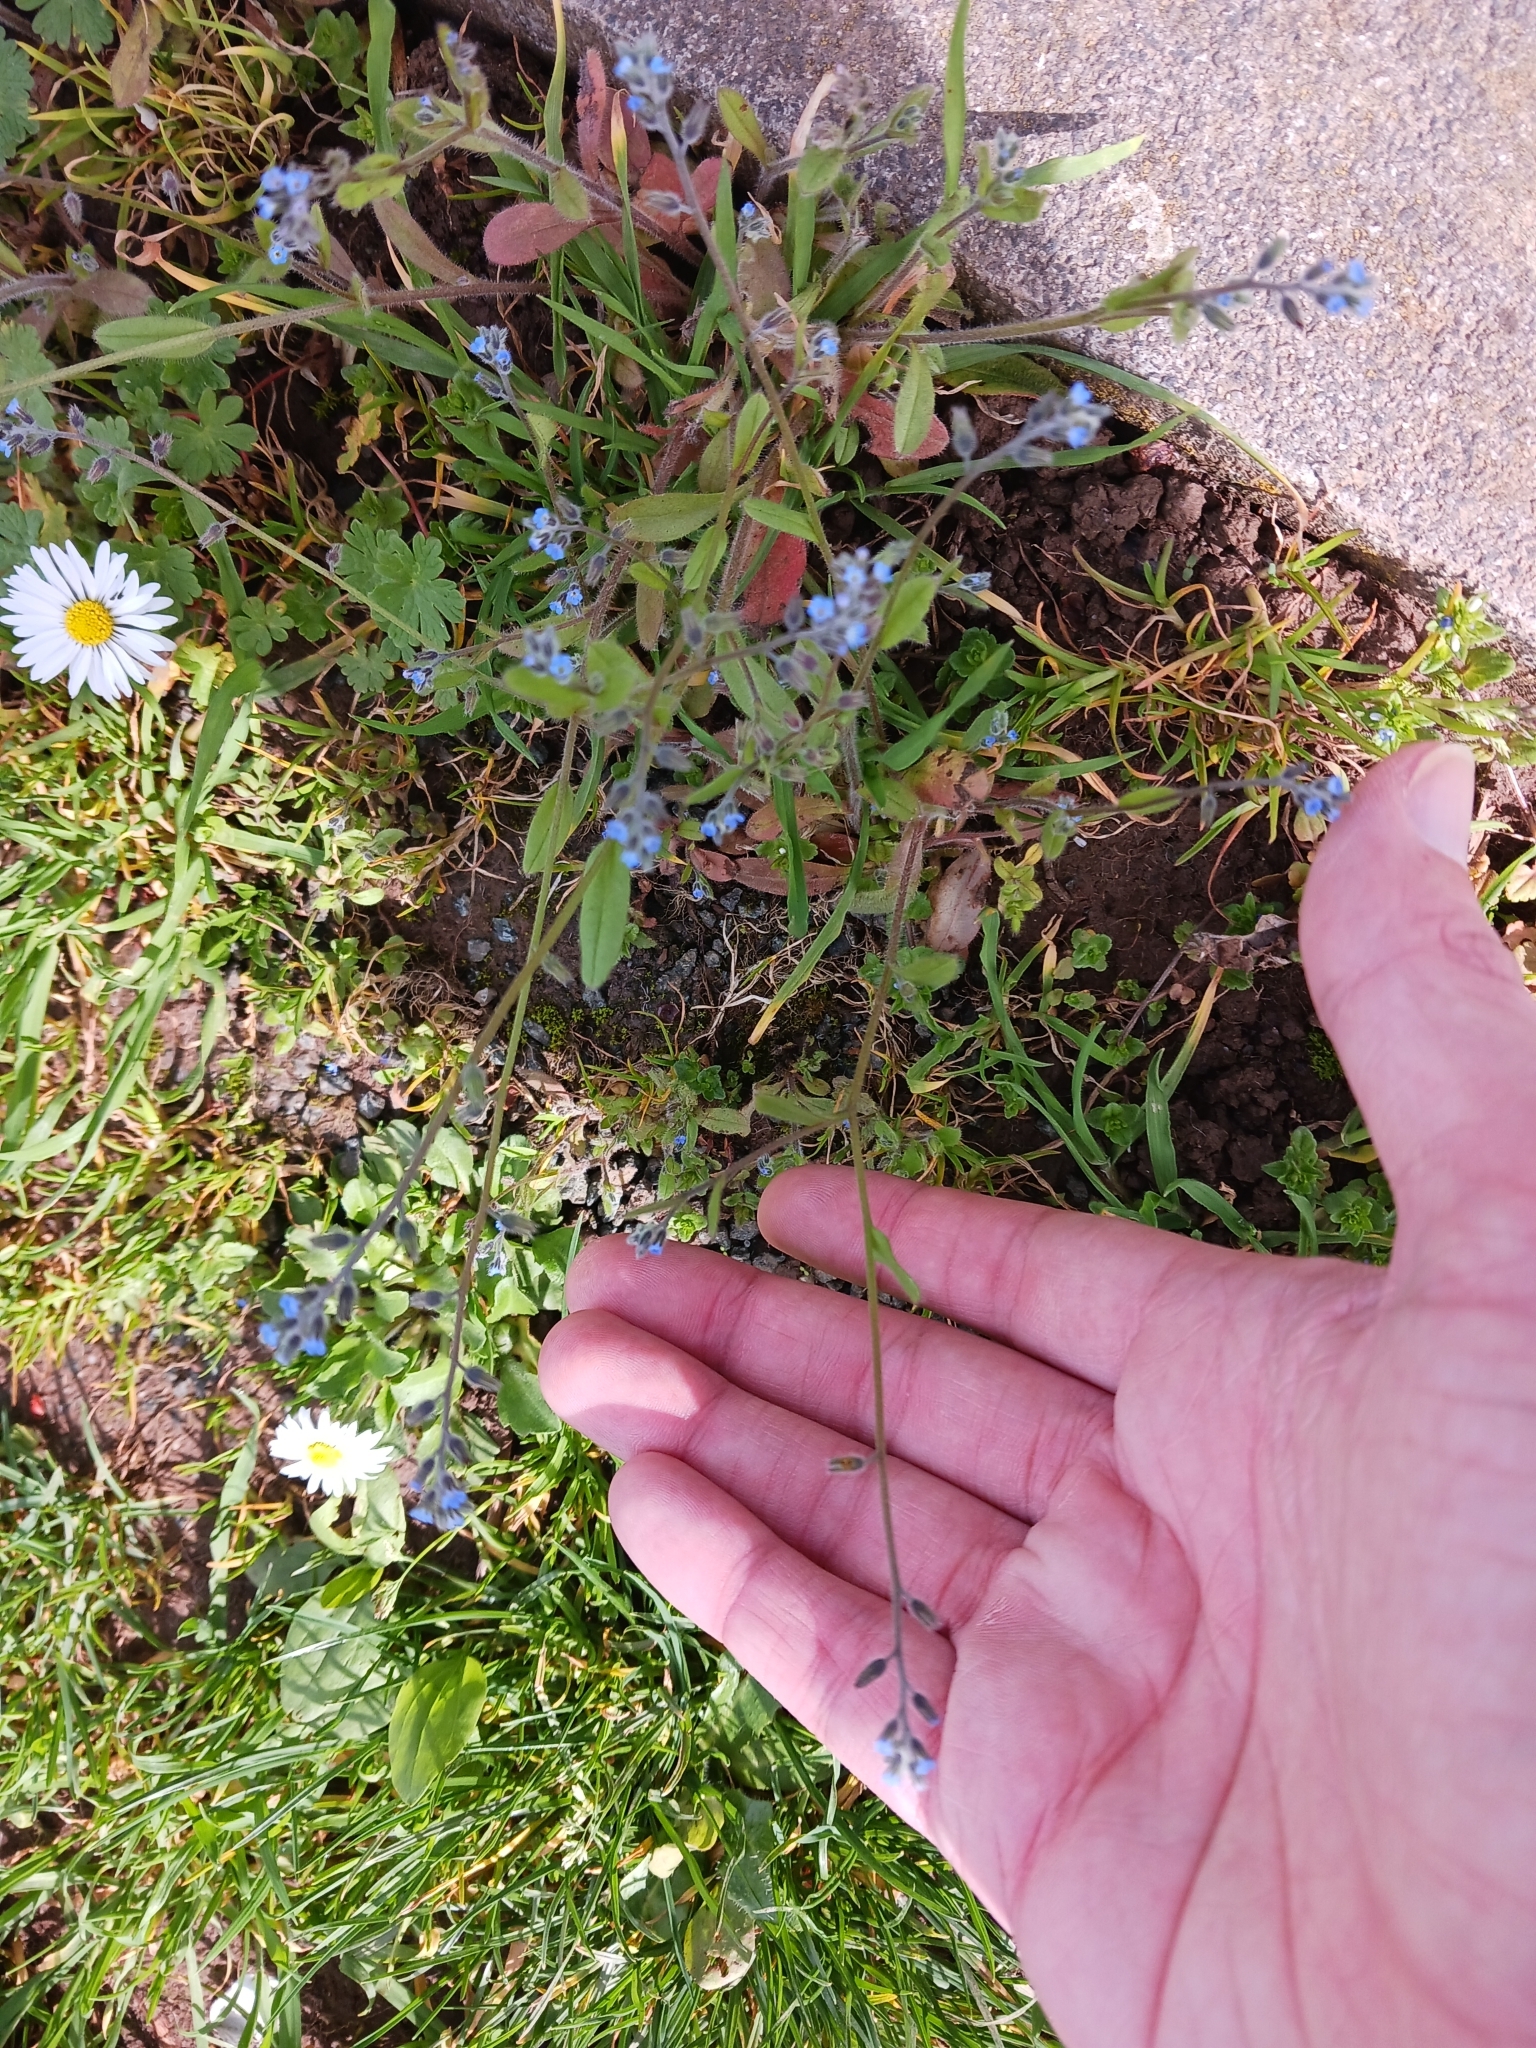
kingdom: Plantae
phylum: Tracheophyta
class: Magnoliopsida
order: Boraginales
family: Boraginaceae
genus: Myosotis
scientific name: Myosotis arvensis
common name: Field forget-me-not
